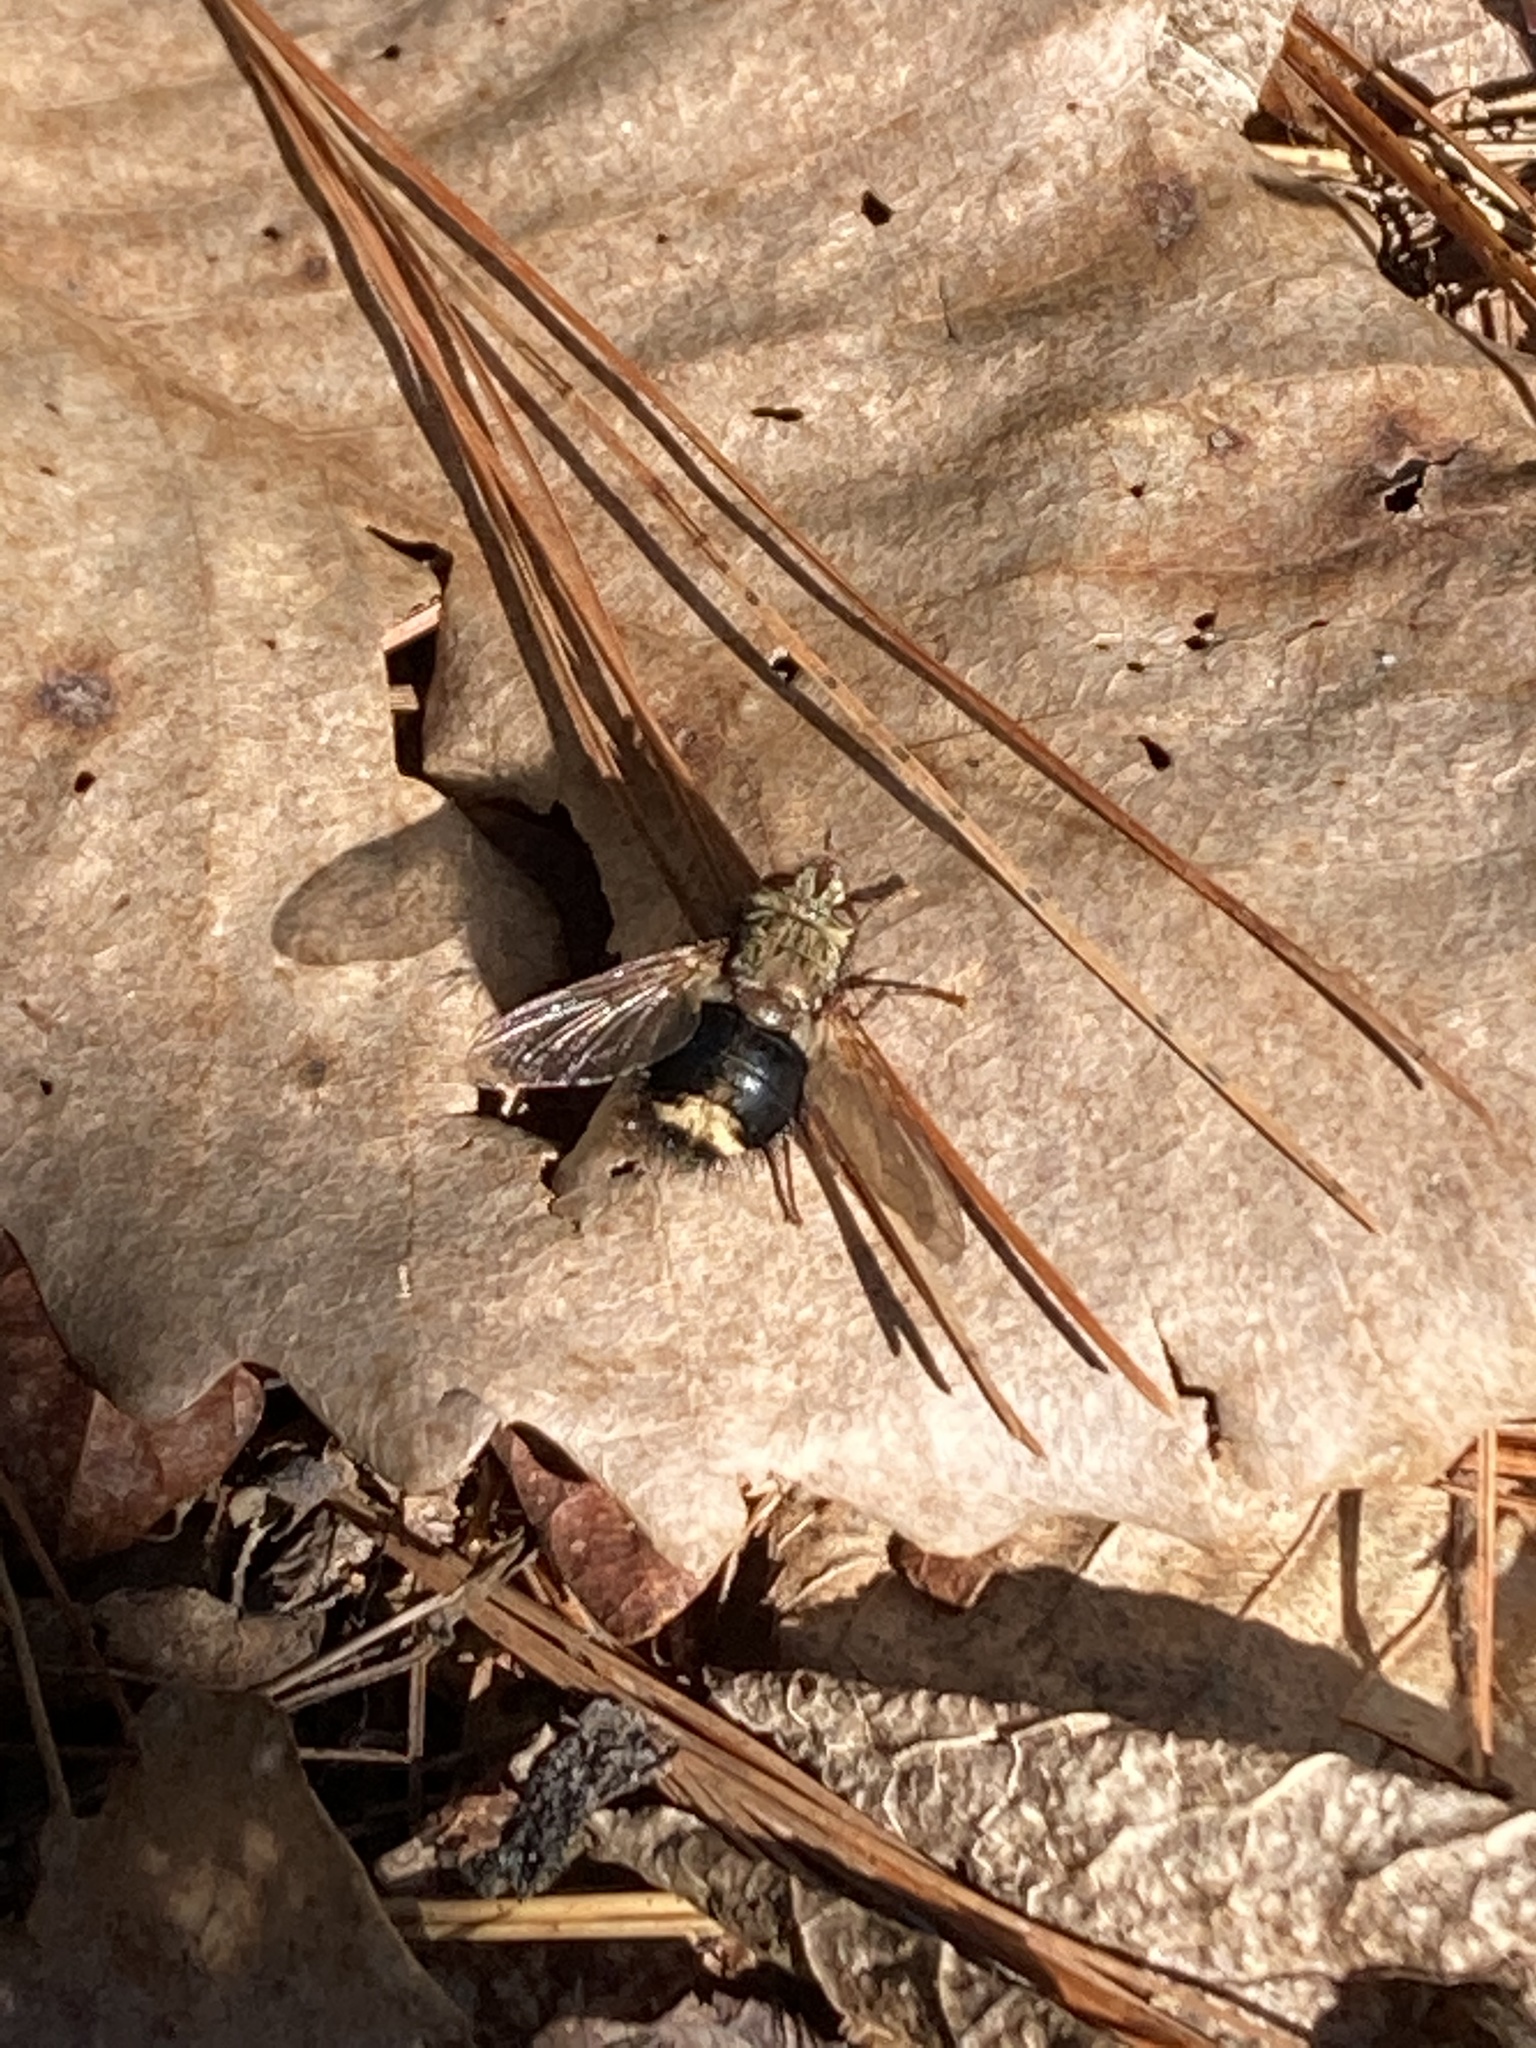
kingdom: Animalia
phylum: Arthropoda
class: Insecta
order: Diptera
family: Tachinidae
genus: Epalpus
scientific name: Epalpus signifer
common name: Early tachinid fly
